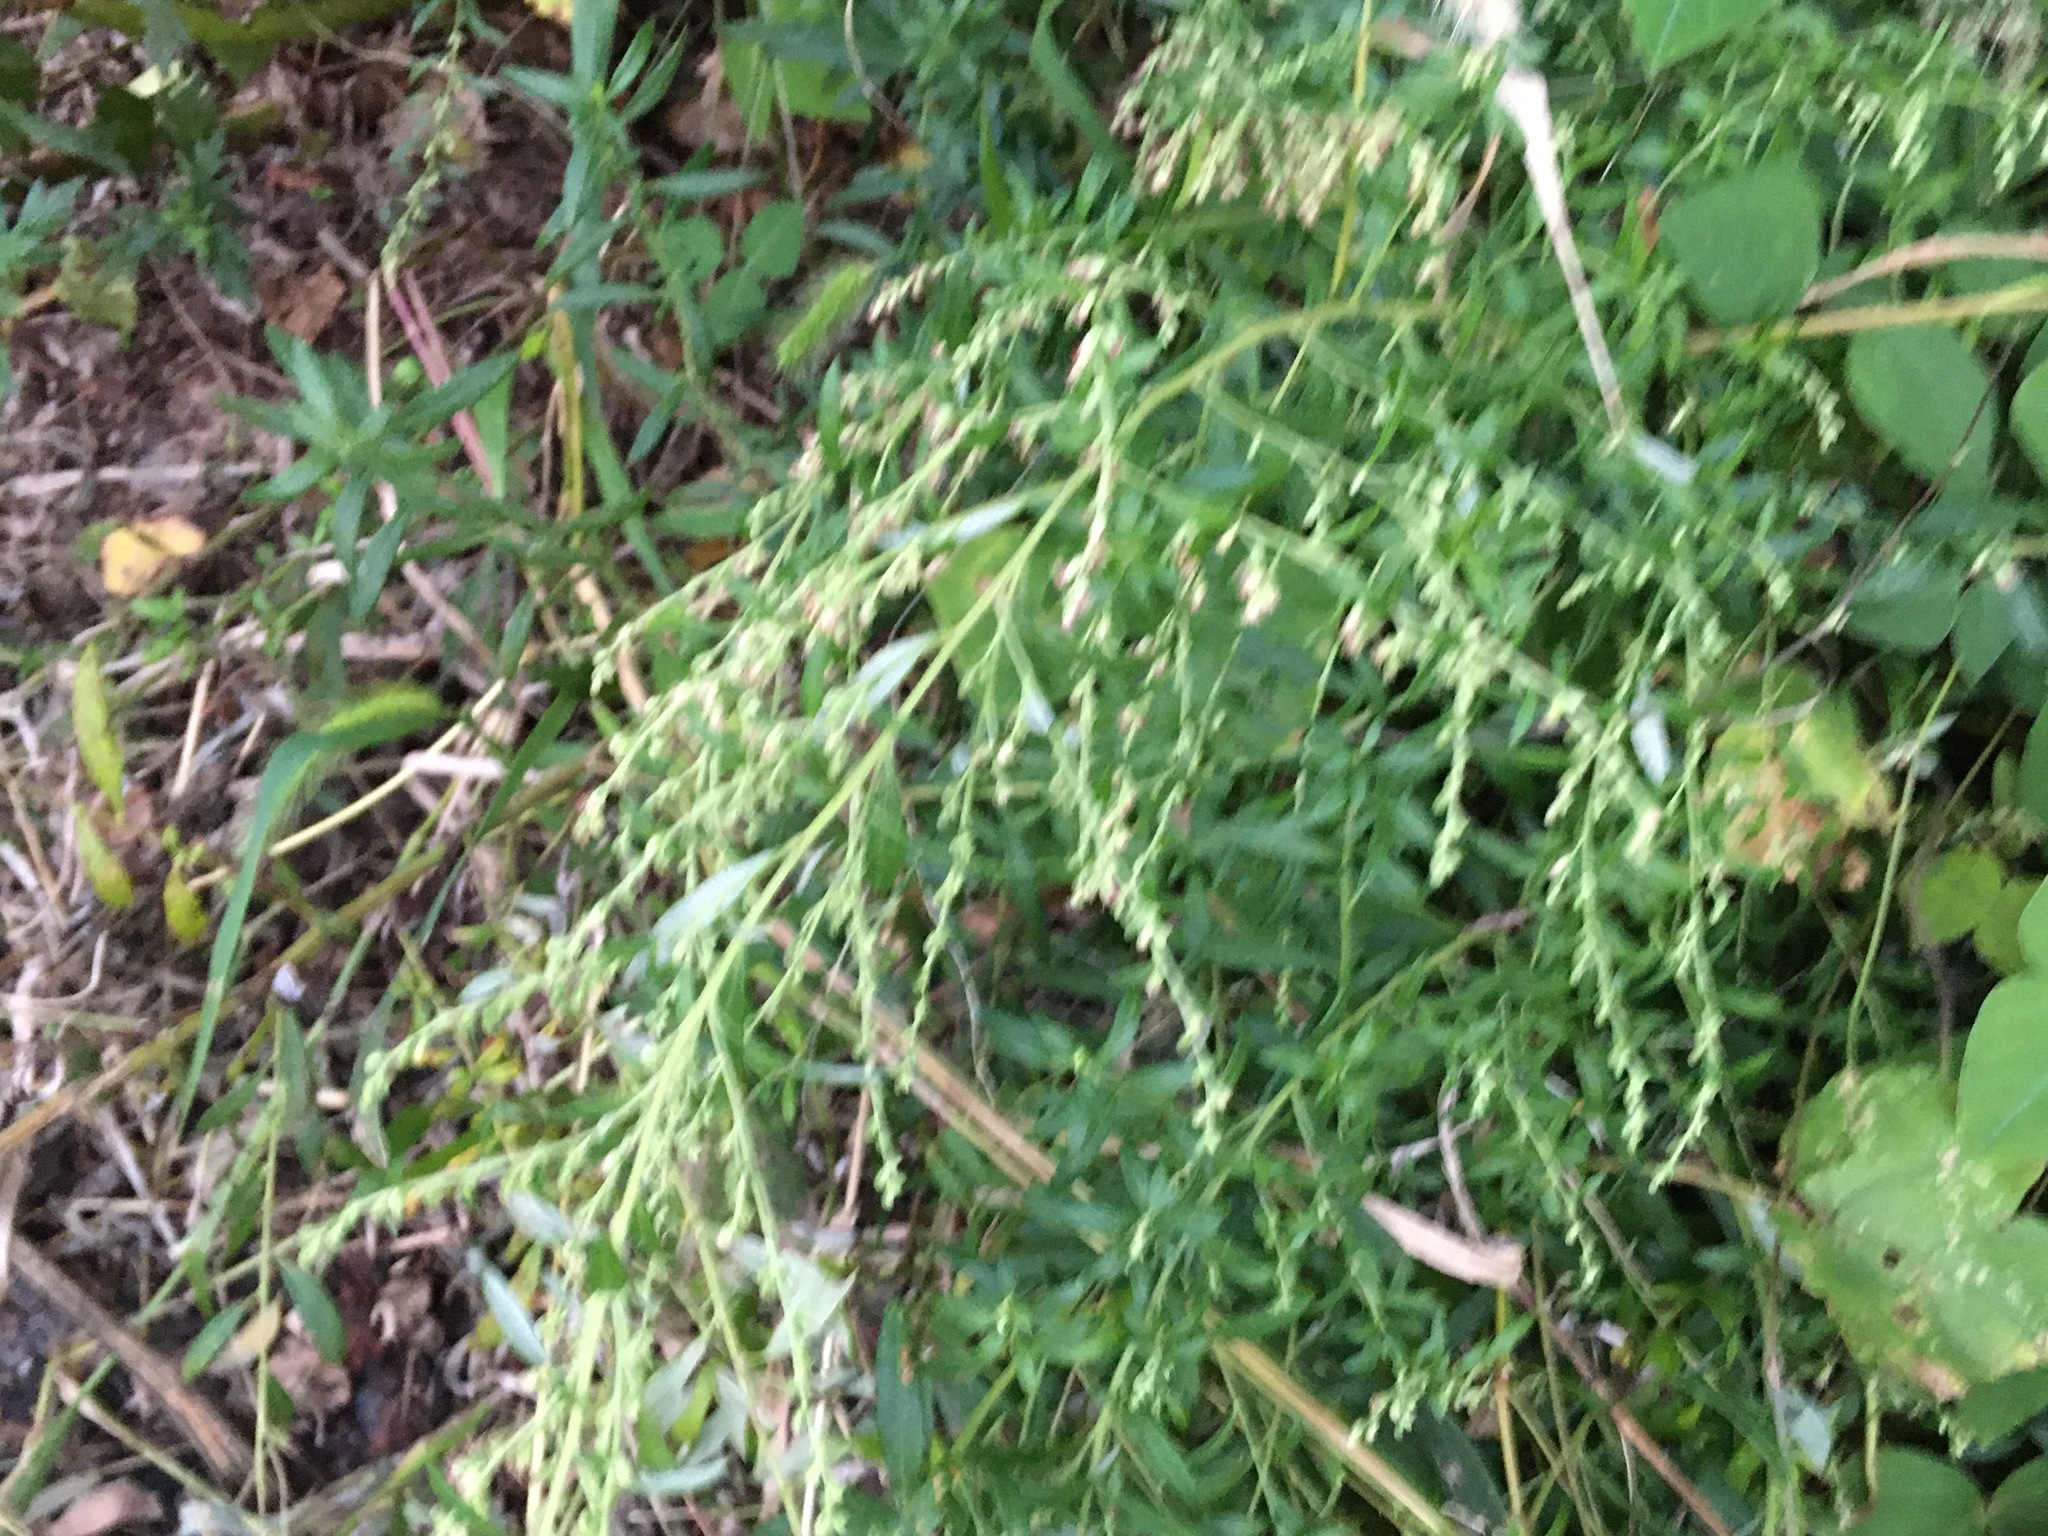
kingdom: Plantae
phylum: Tracheophyta
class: Magnoliopsida
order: Asterales
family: Asteraceae
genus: Artemisia
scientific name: Artemisia vulgaris
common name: Mugwort
